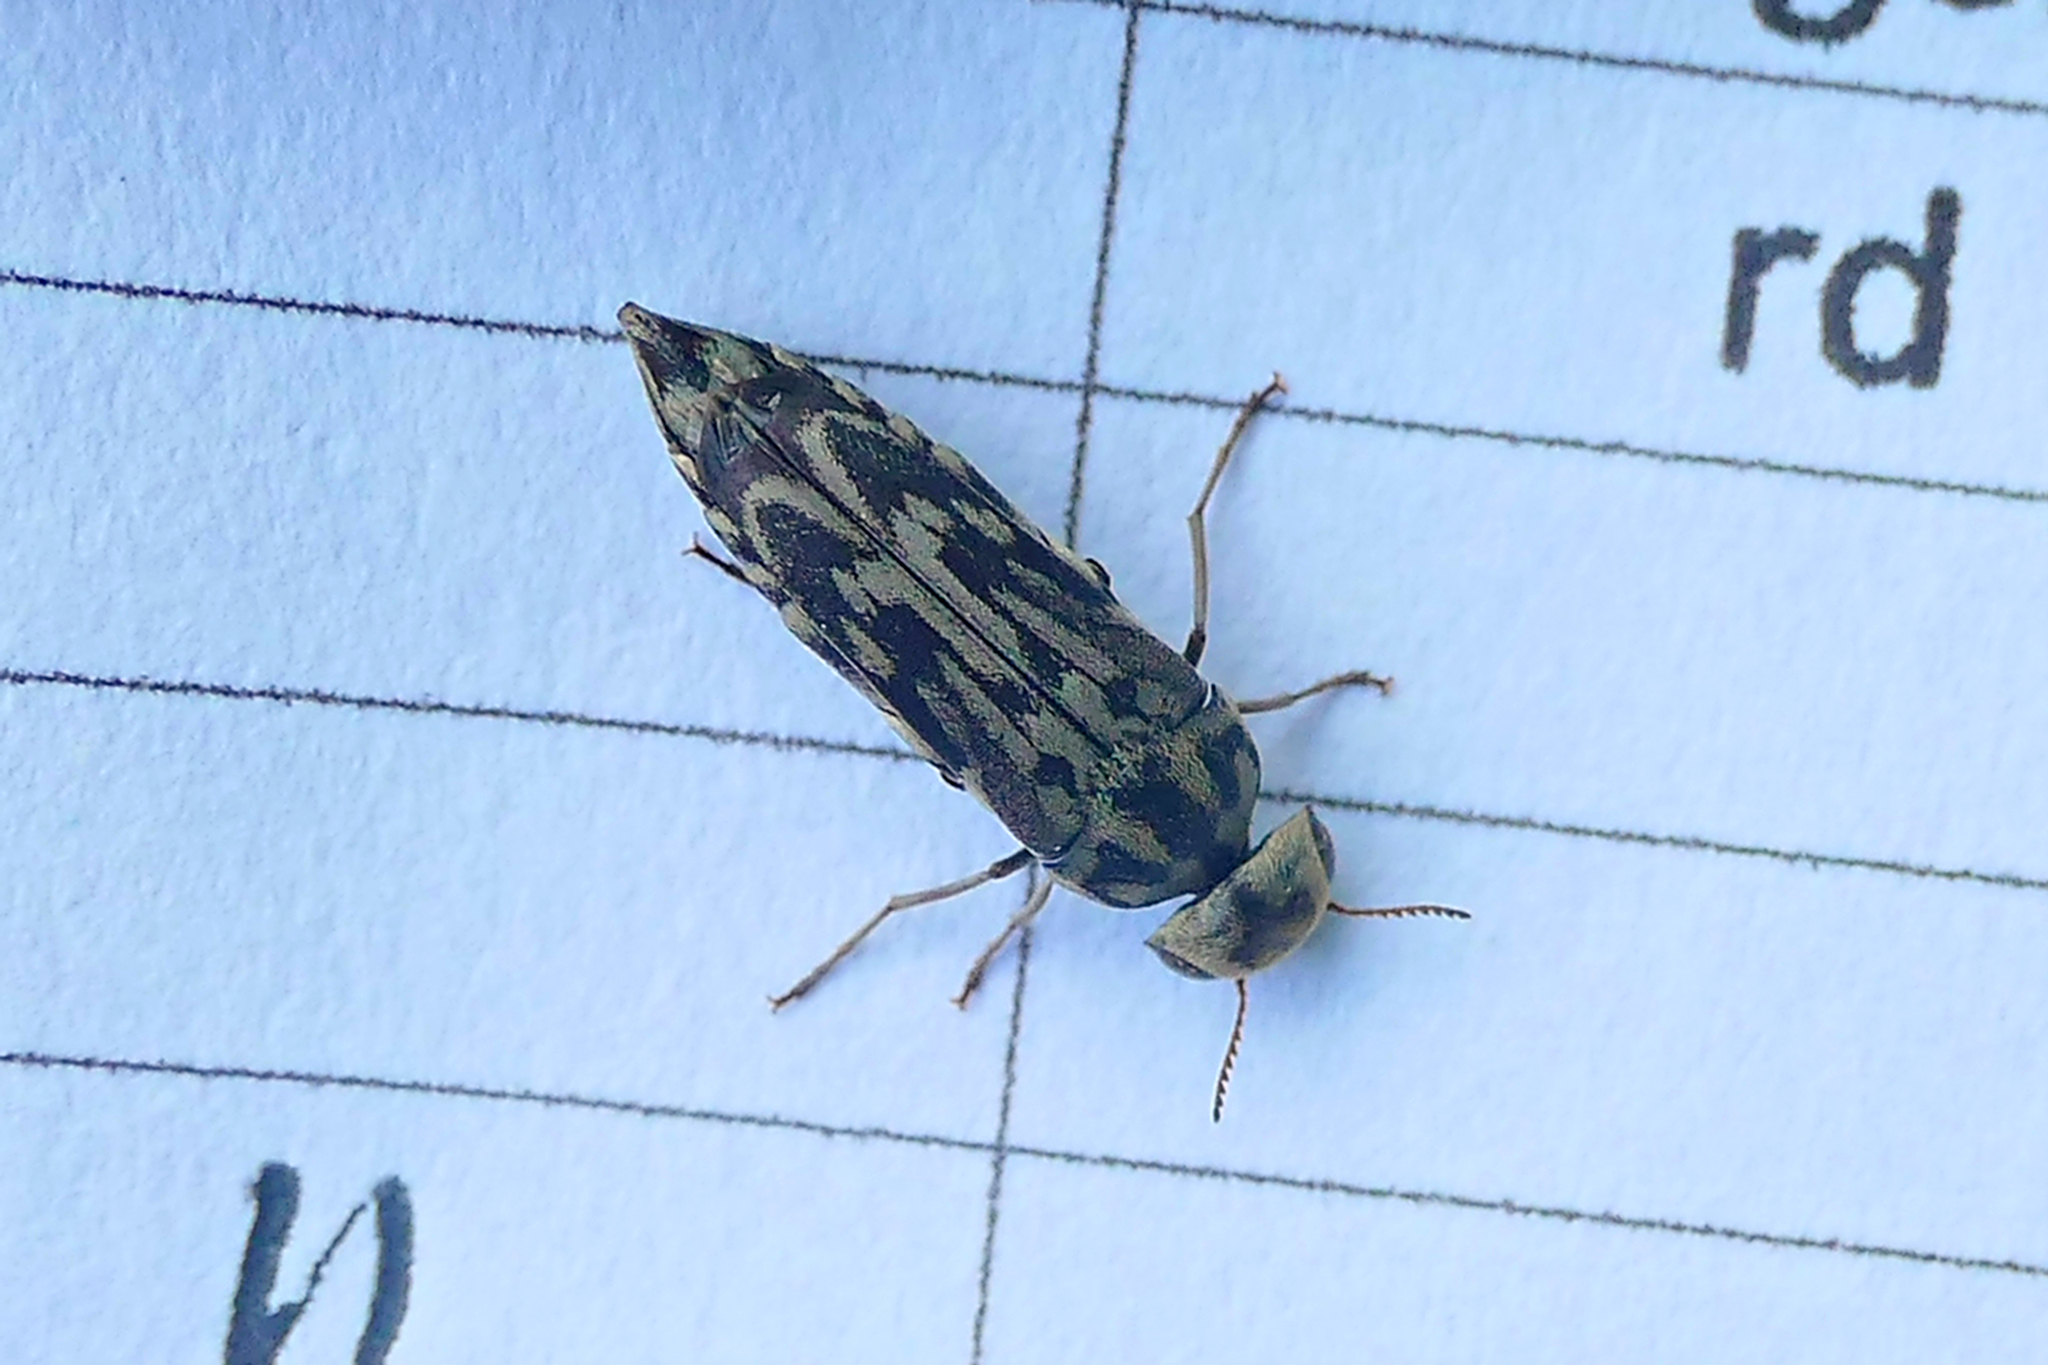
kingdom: Animalia
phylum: Arthropoda
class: Insecta
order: Coleoptera
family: Mordellidae
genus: Yakuhananomia
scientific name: Yakuhananomia bidentata
